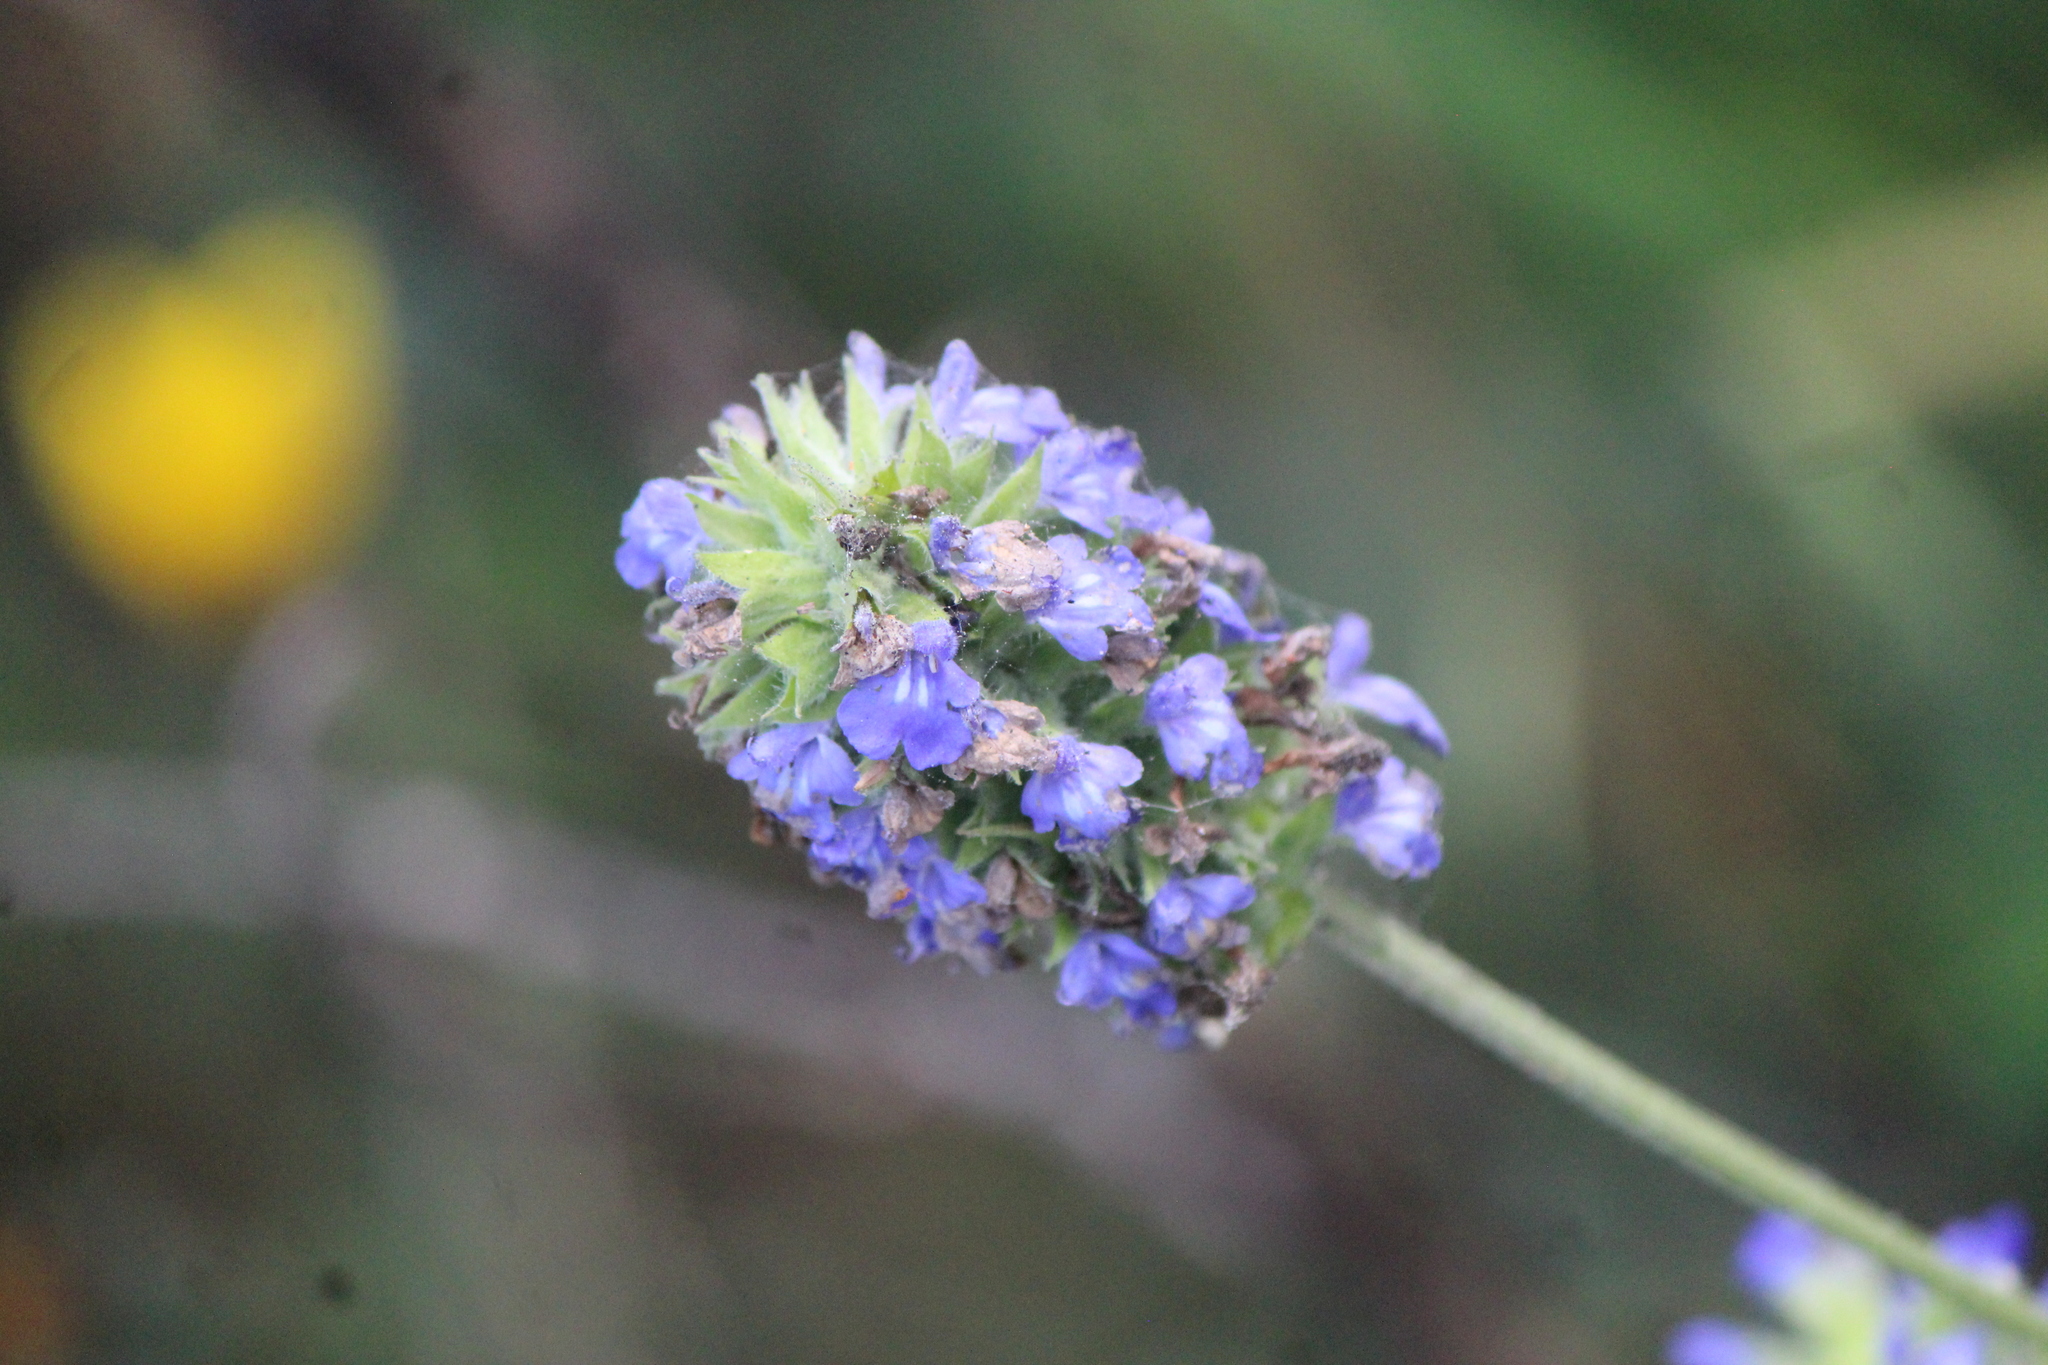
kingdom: Plantae
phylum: Tracheophyta
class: Magnoliopsida
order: Lamiales
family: Lamiaceae
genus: Salvia
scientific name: Salvia hispanica
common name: Chia
